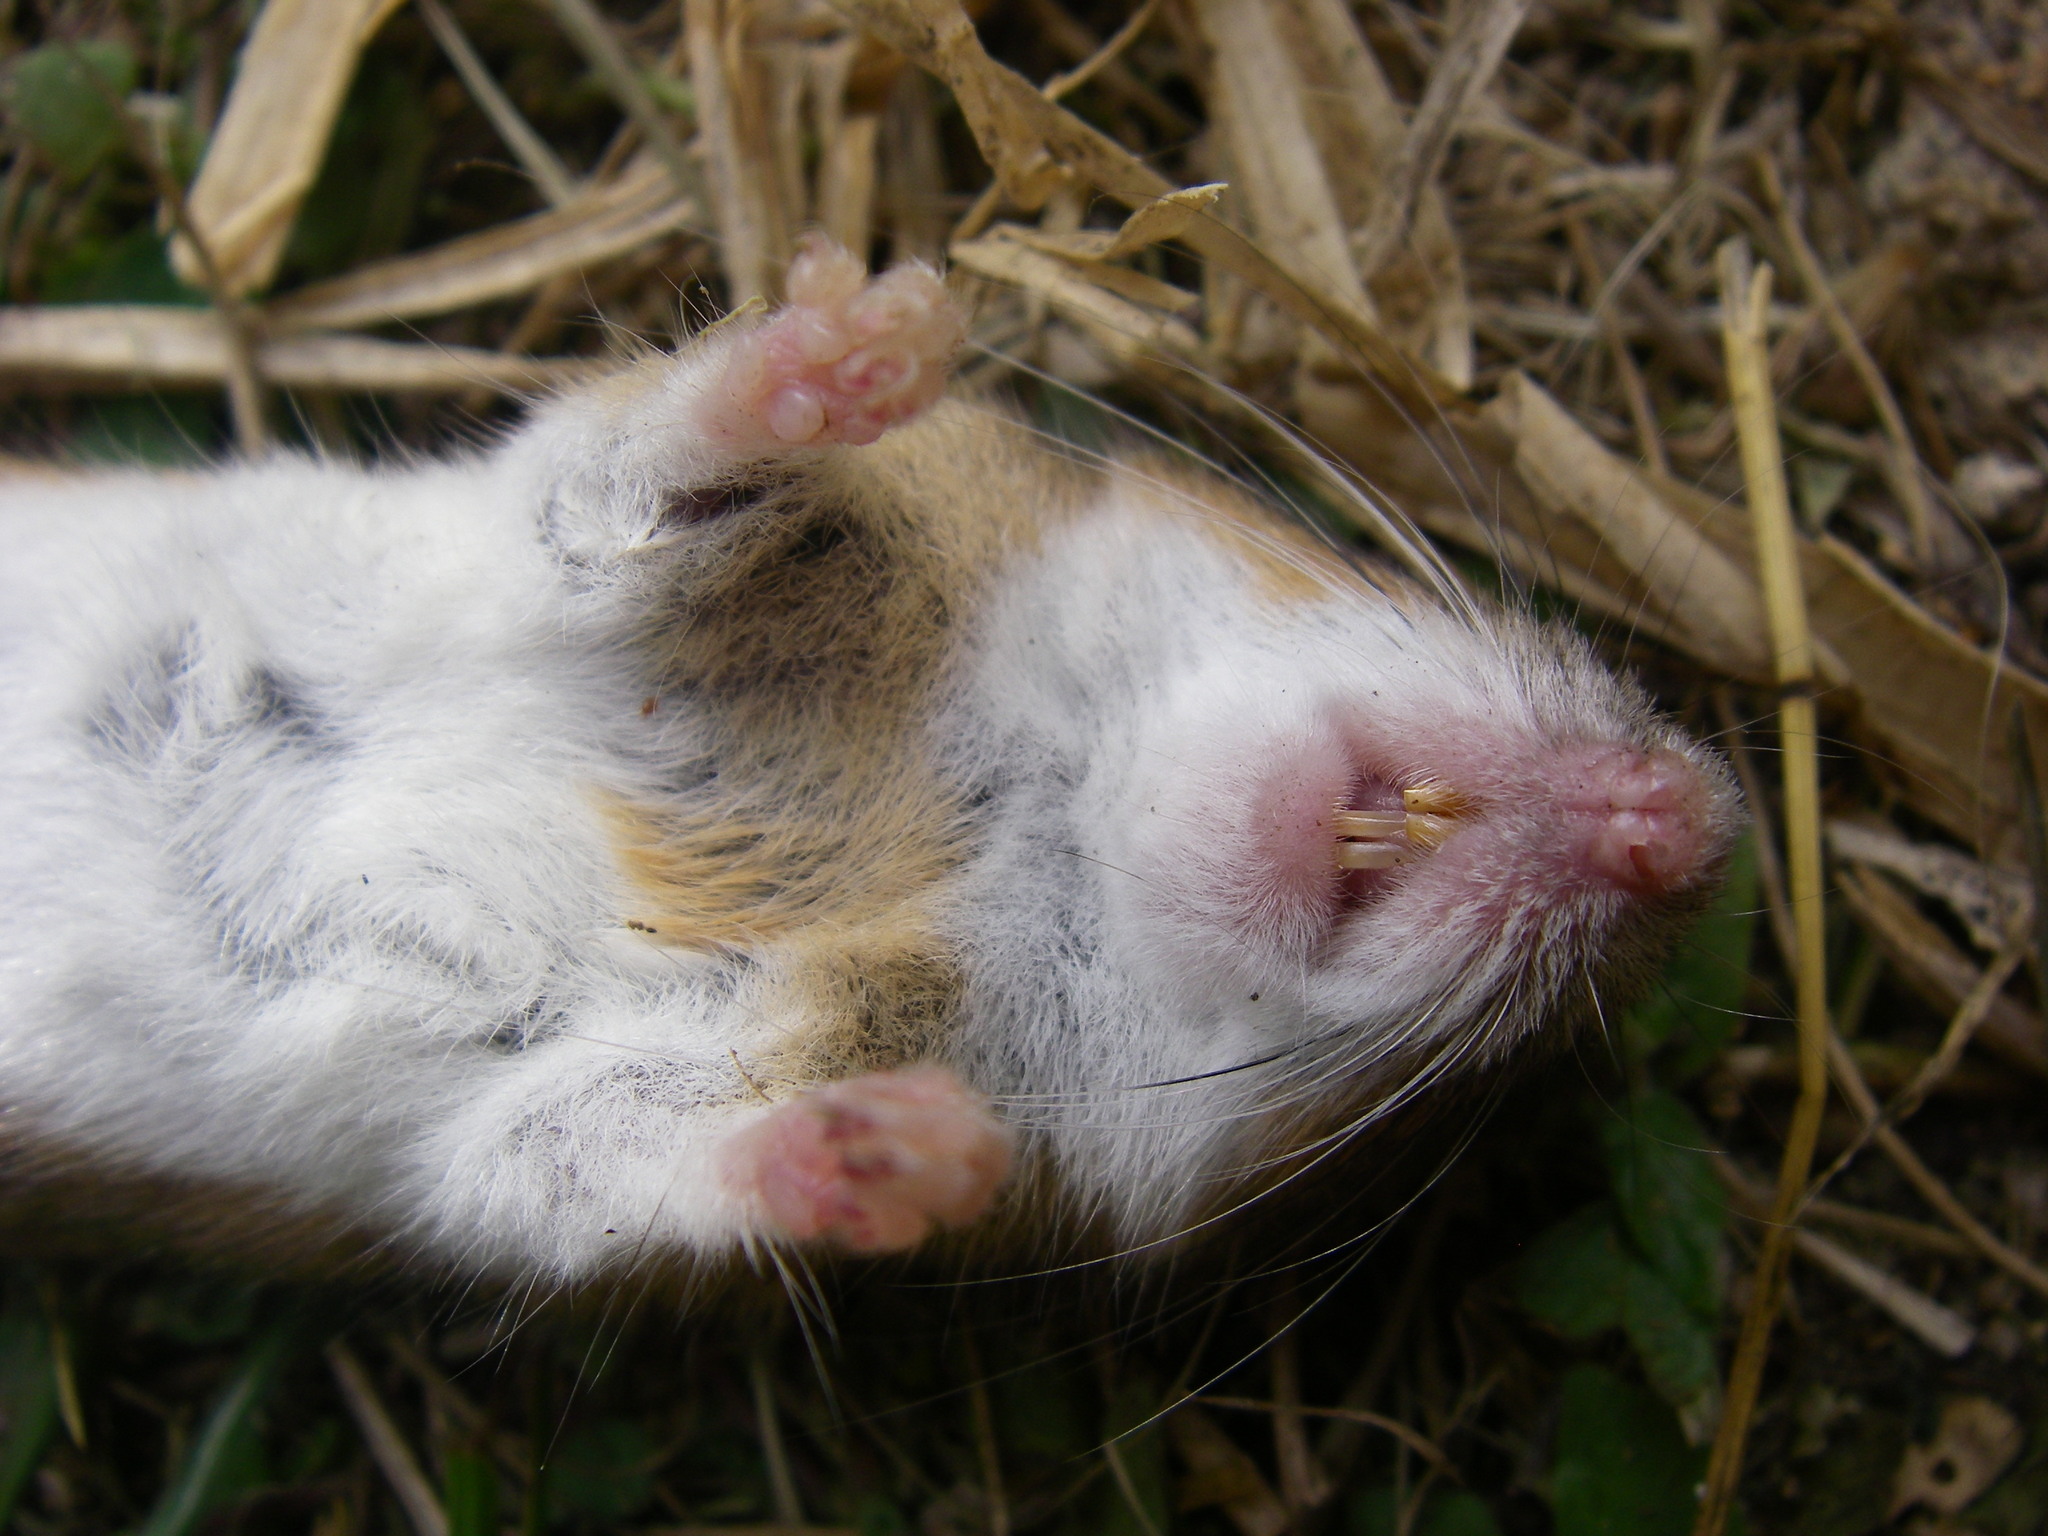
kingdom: Animalia
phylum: Chordata
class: Mammalia
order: Rodentia
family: Muridae
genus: Apodemus
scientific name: Apodemus flavicollis
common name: Yellow-necked field mouse
